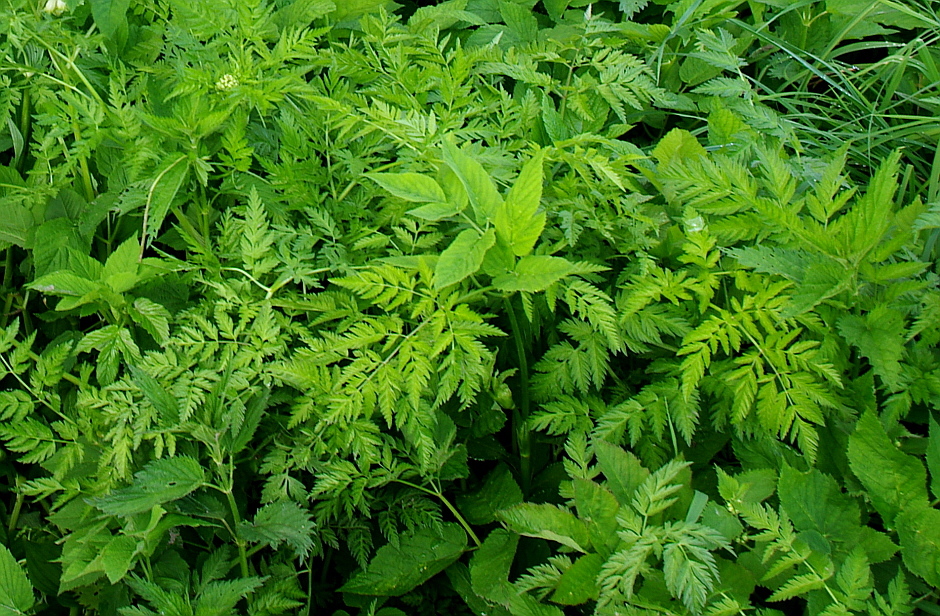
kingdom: Plantae
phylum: Tracheophyta
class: Magnoliopsida
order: Apiales
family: Apiaceae
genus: Anthriscus
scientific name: Anthriscus sylvestris
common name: Cow parsley
